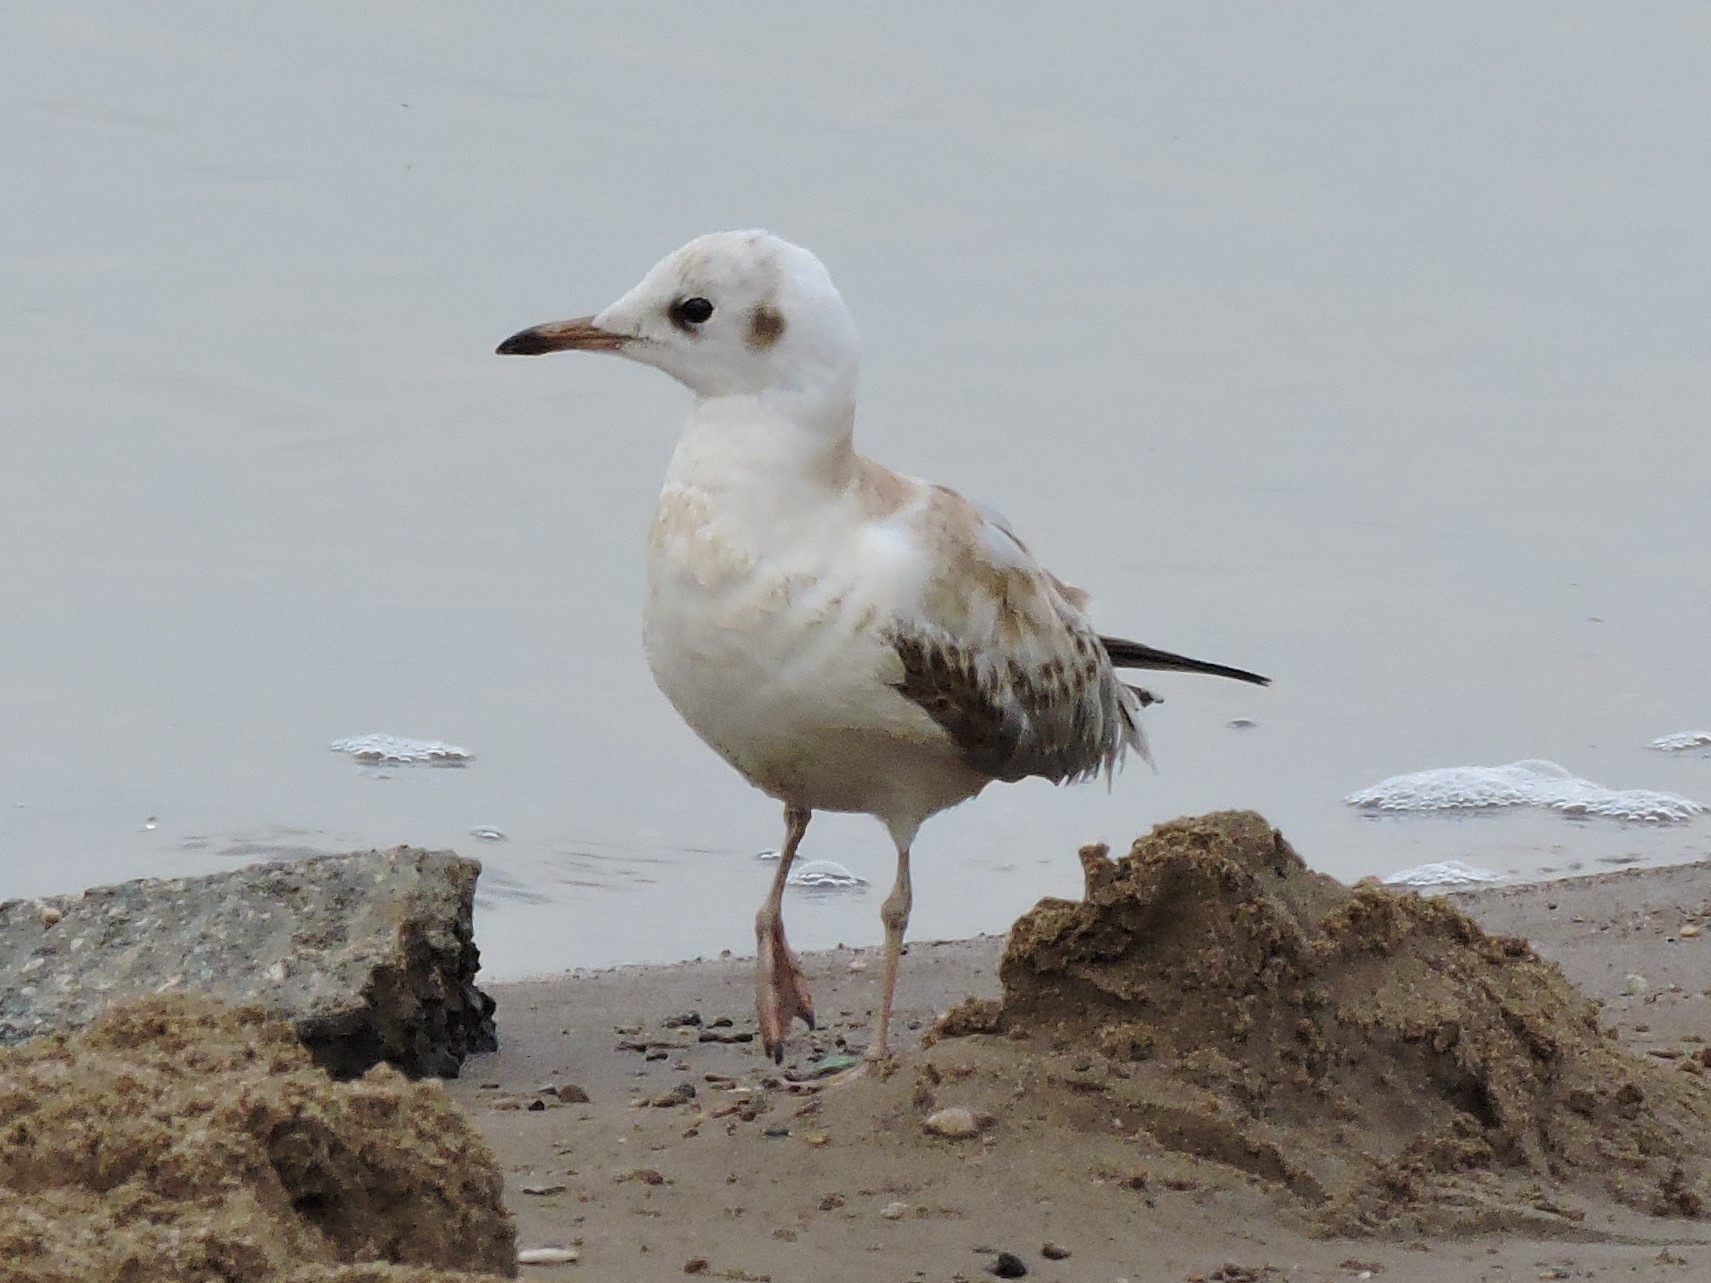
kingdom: Animalia
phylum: Chordata
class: Aves
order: Charadriiformes
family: Laridae
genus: Chroicocephalus
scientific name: Chroicocephalus ridibundus
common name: Black-headed gull
